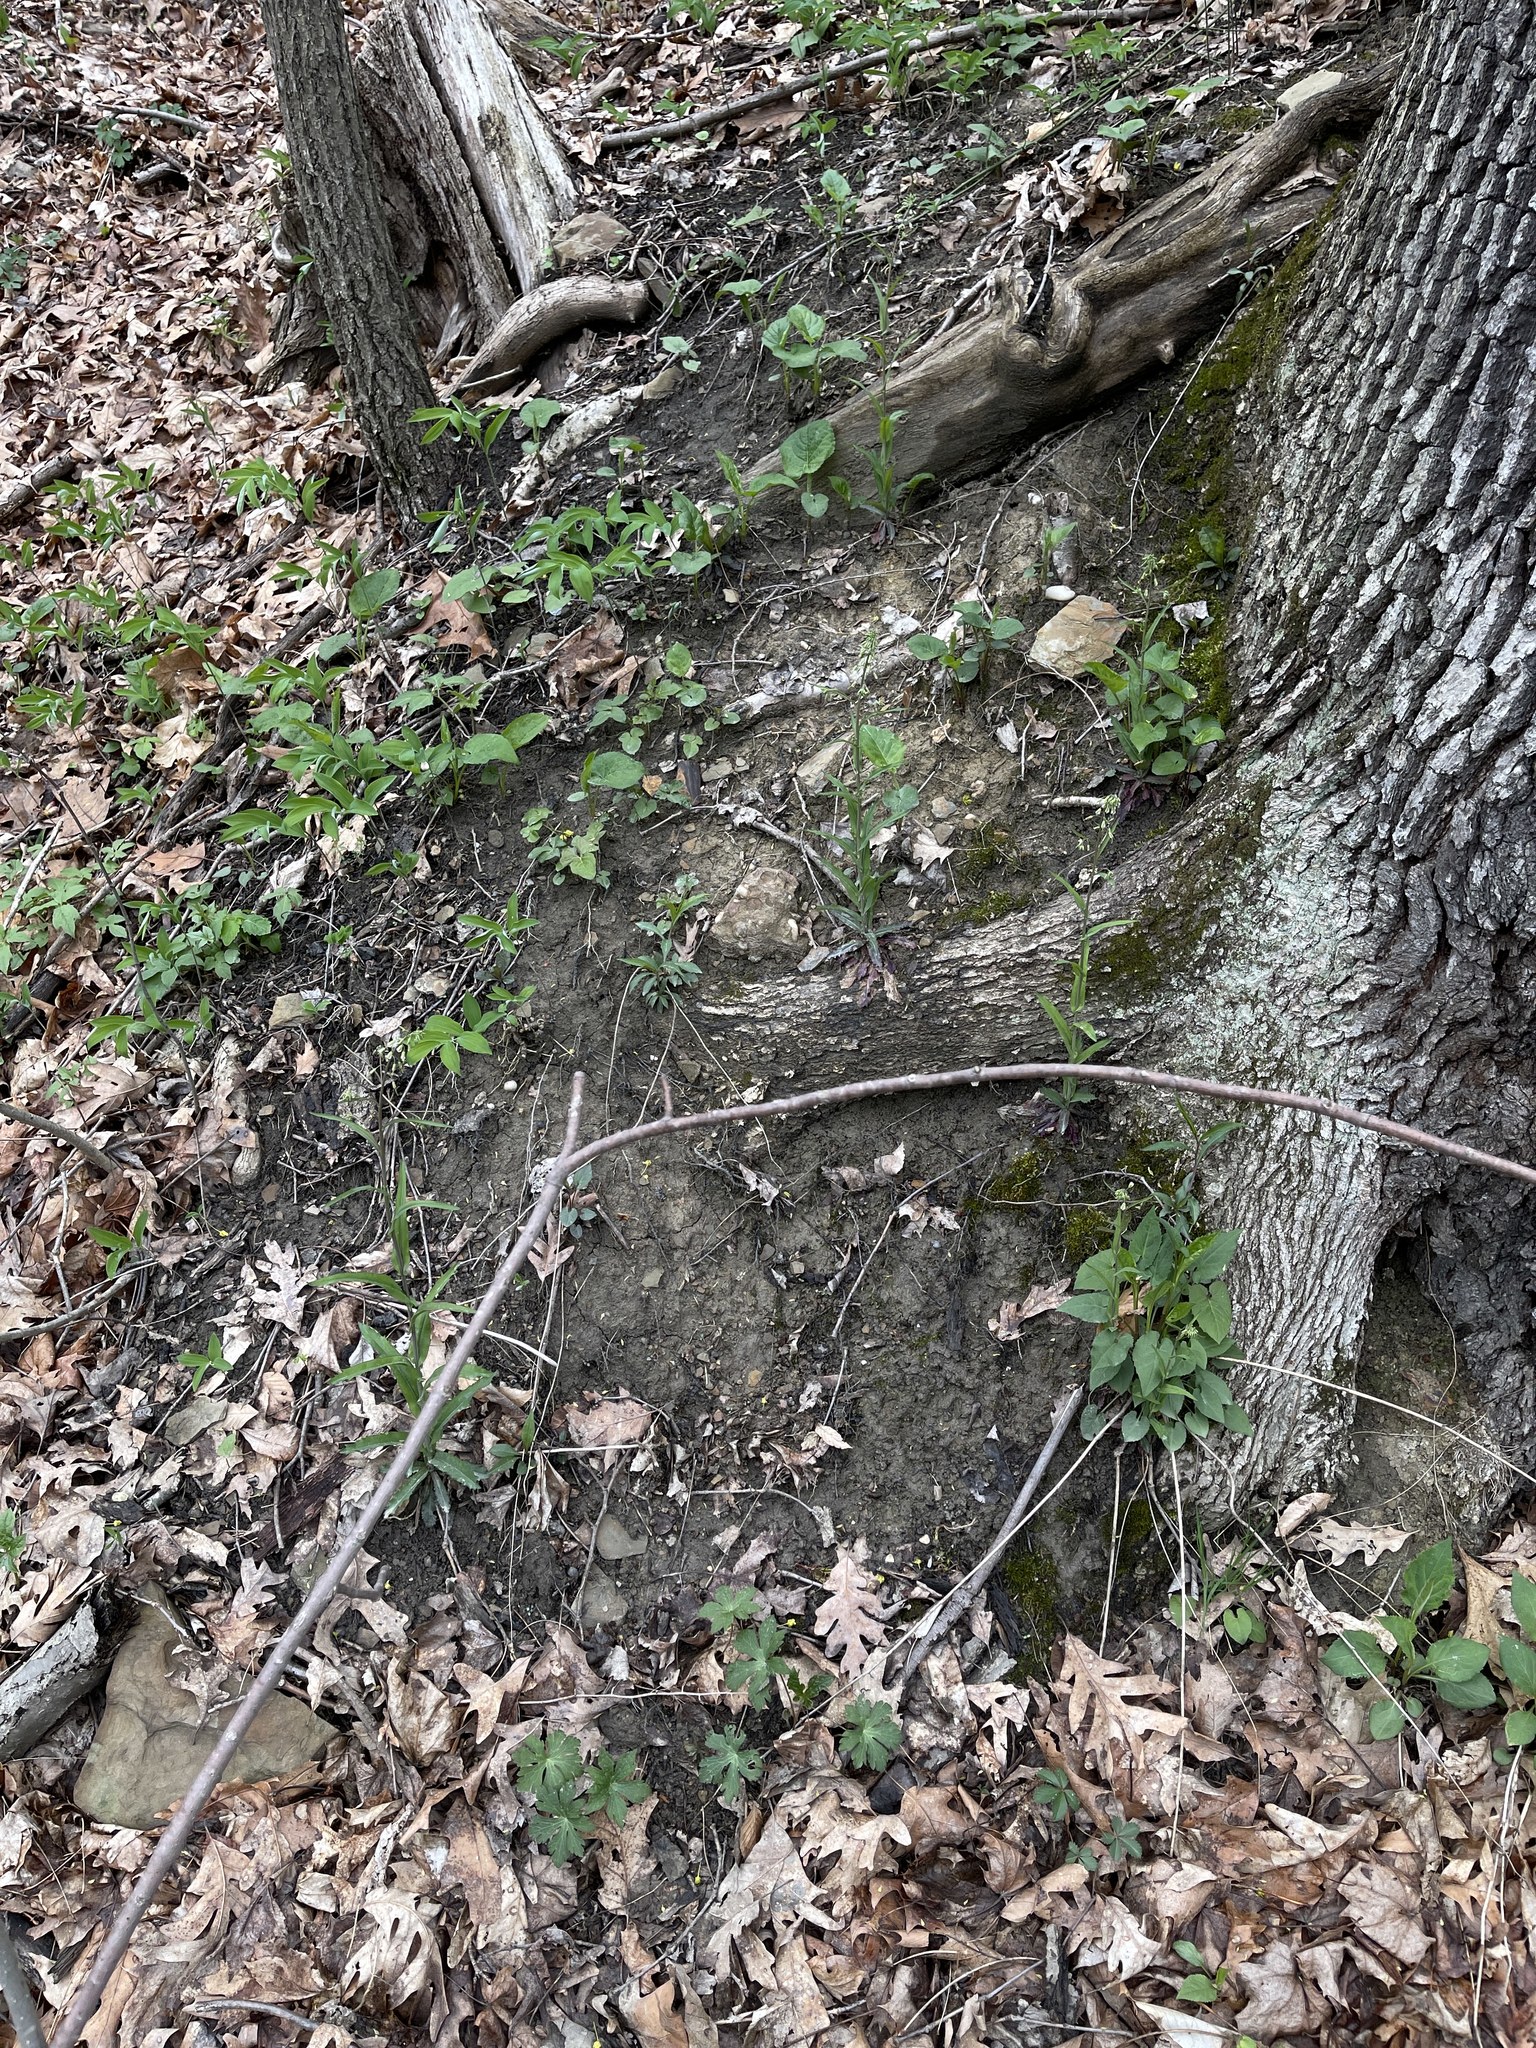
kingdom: Plantae
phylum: Tracheophyta
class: Magnoliopsida
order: Brassicales
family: Brassicaceae
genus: Borodinia
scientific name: Borodinia laevigata
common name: Smooth rockcress
